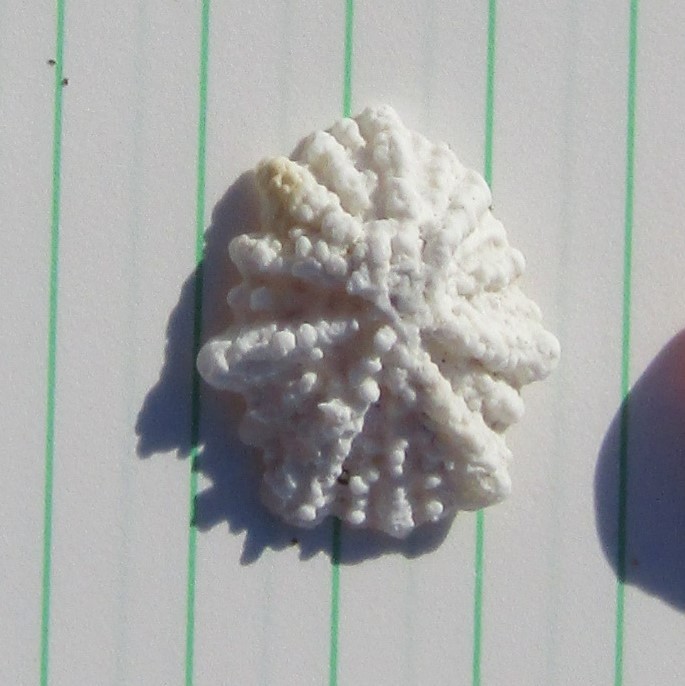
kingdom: Animalia
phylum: Mollusca
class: Gastropoda
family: Lottiidae
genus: Patelloida
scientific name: Patelloida corticata
